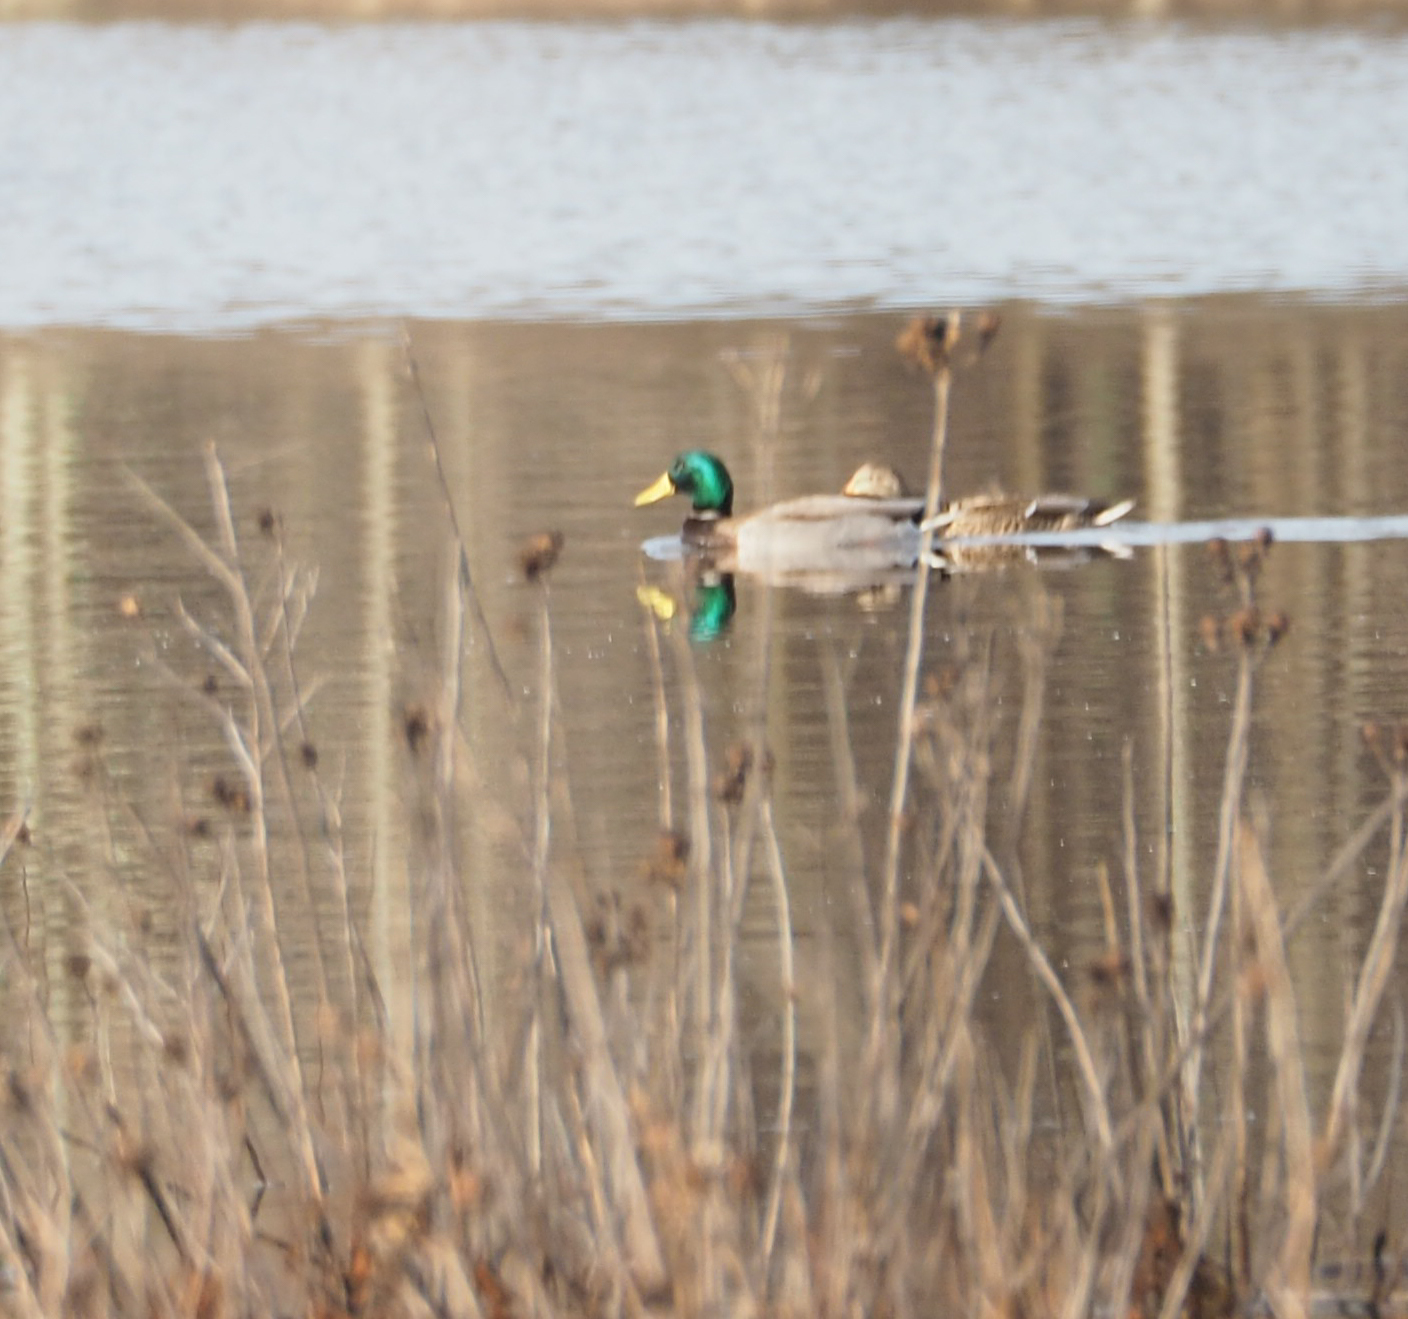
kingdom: Animalia
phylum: Chordata
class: Aves
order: Anseriformes
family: Anatidae
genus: Anas
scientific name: Anas platyrhynchos
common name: Mallard
